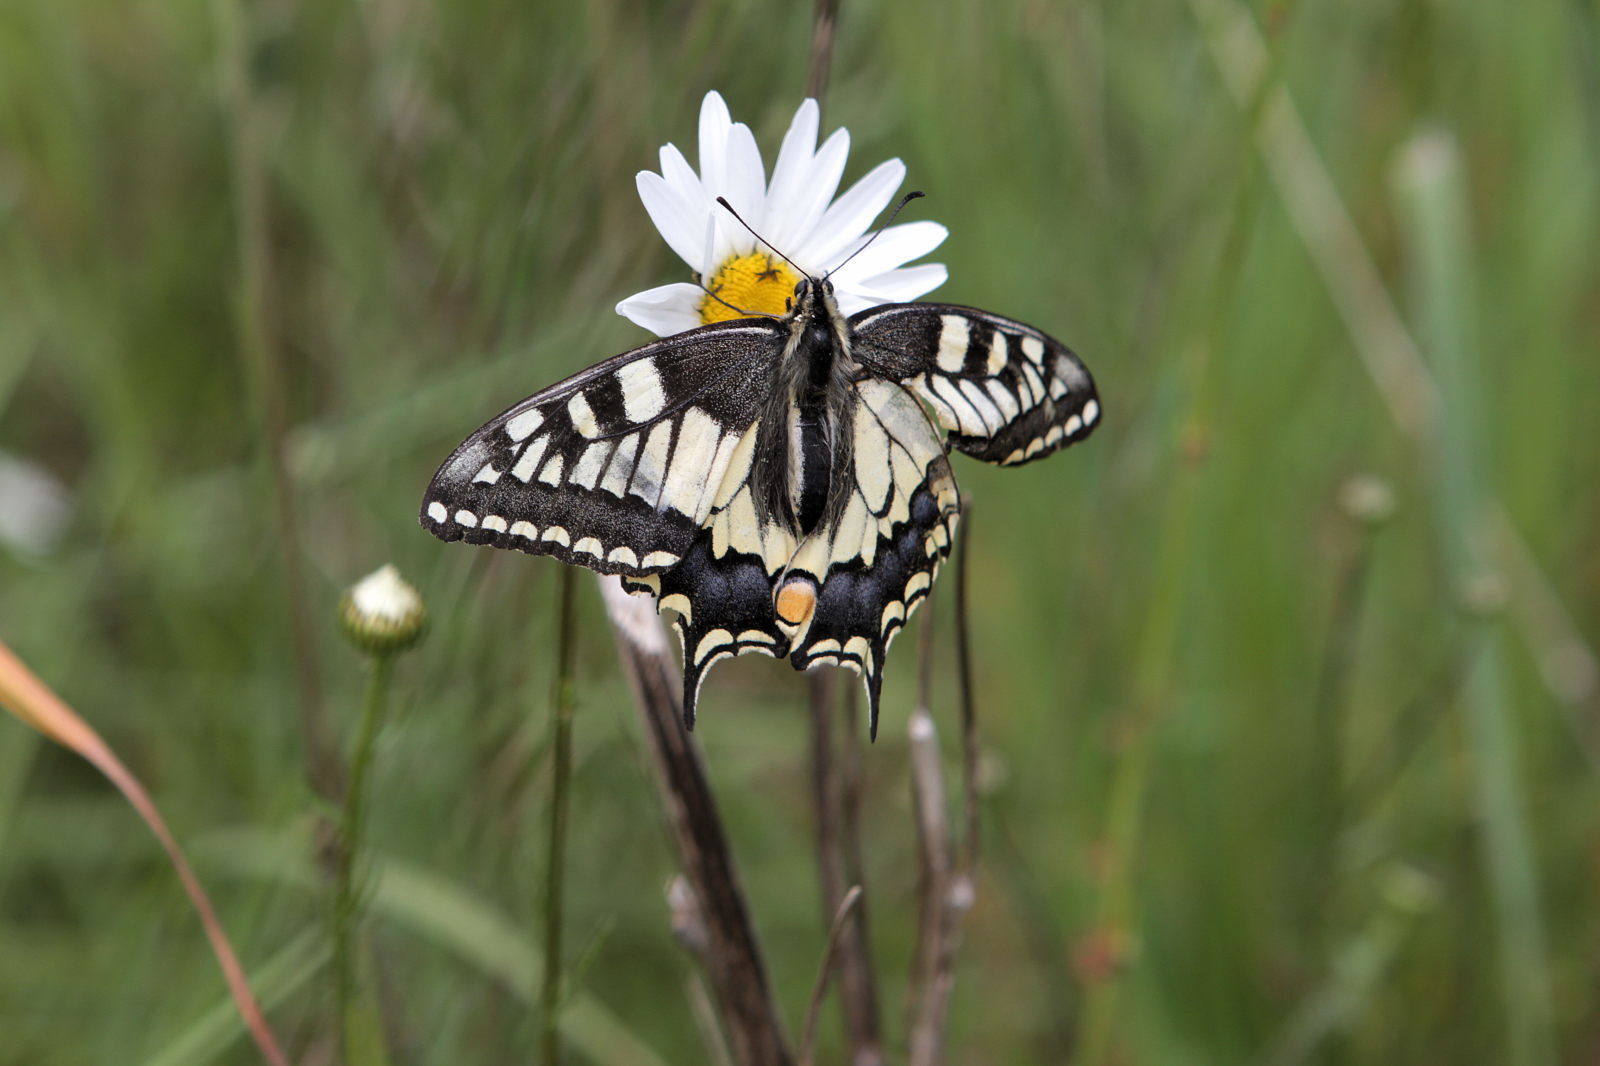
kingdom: Animalia
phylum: Arthropoda
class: Insecta
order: Lepidoptera
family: Papilionidae
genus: Papilio
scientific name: Papilio machaon
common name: Swallowtail
